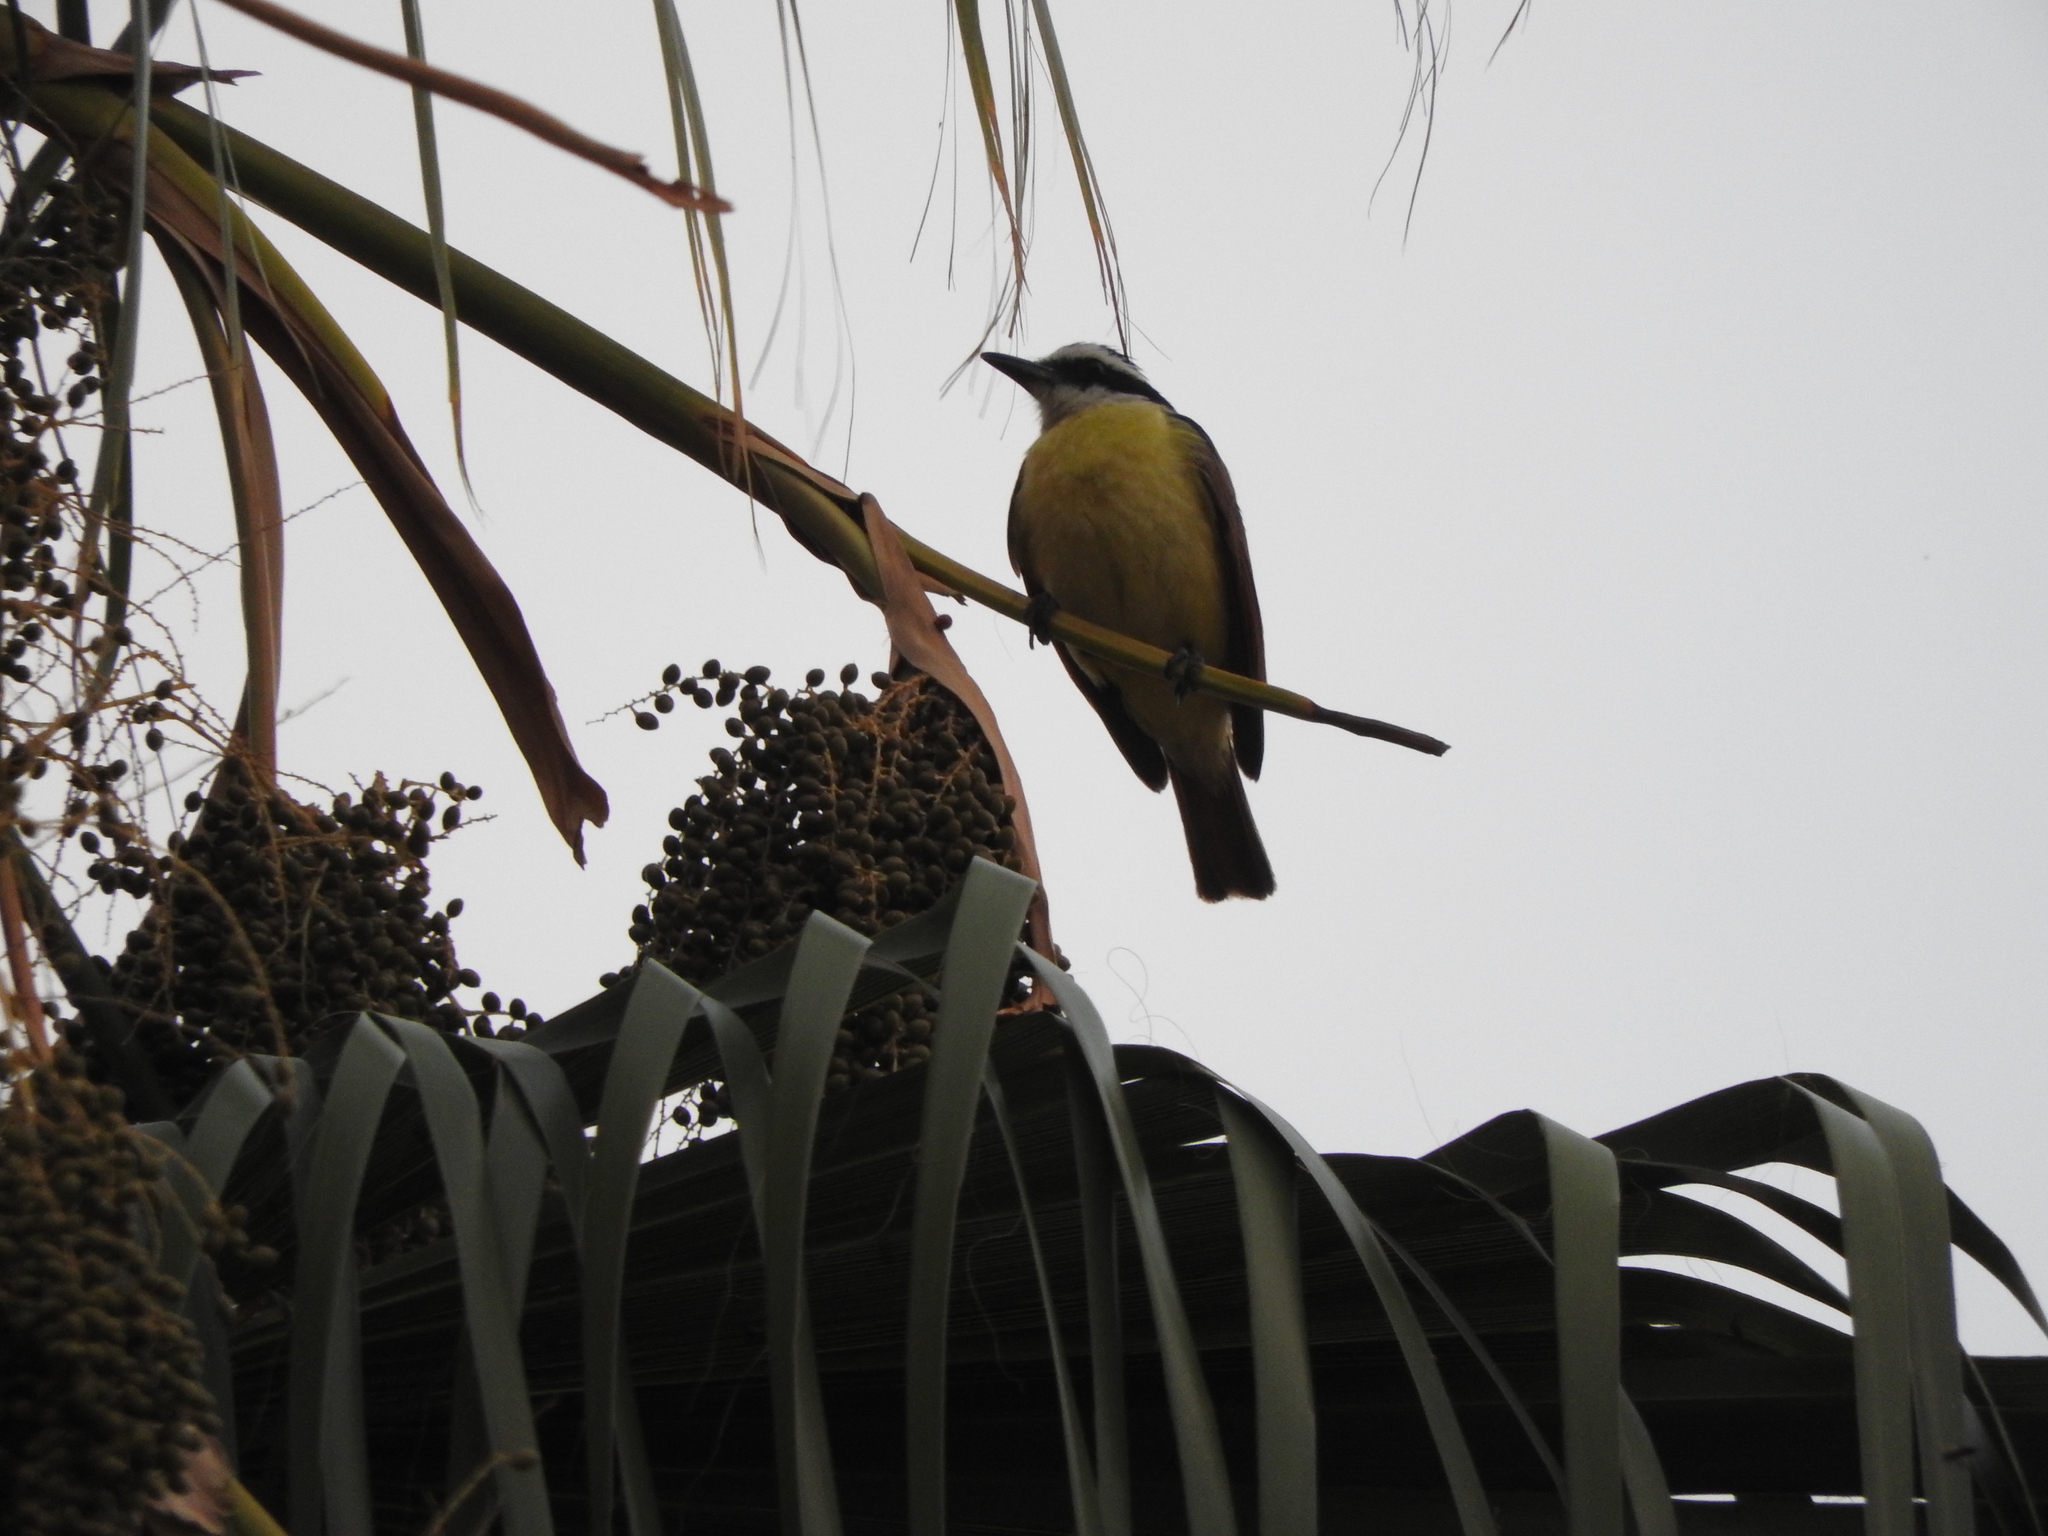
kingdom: Animalia
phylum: Chordata
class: Aves
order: Passeriformes
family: Tyrannidae
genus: Pitangus
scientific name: Pitangus sulphuratus
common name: Great kiskadee
